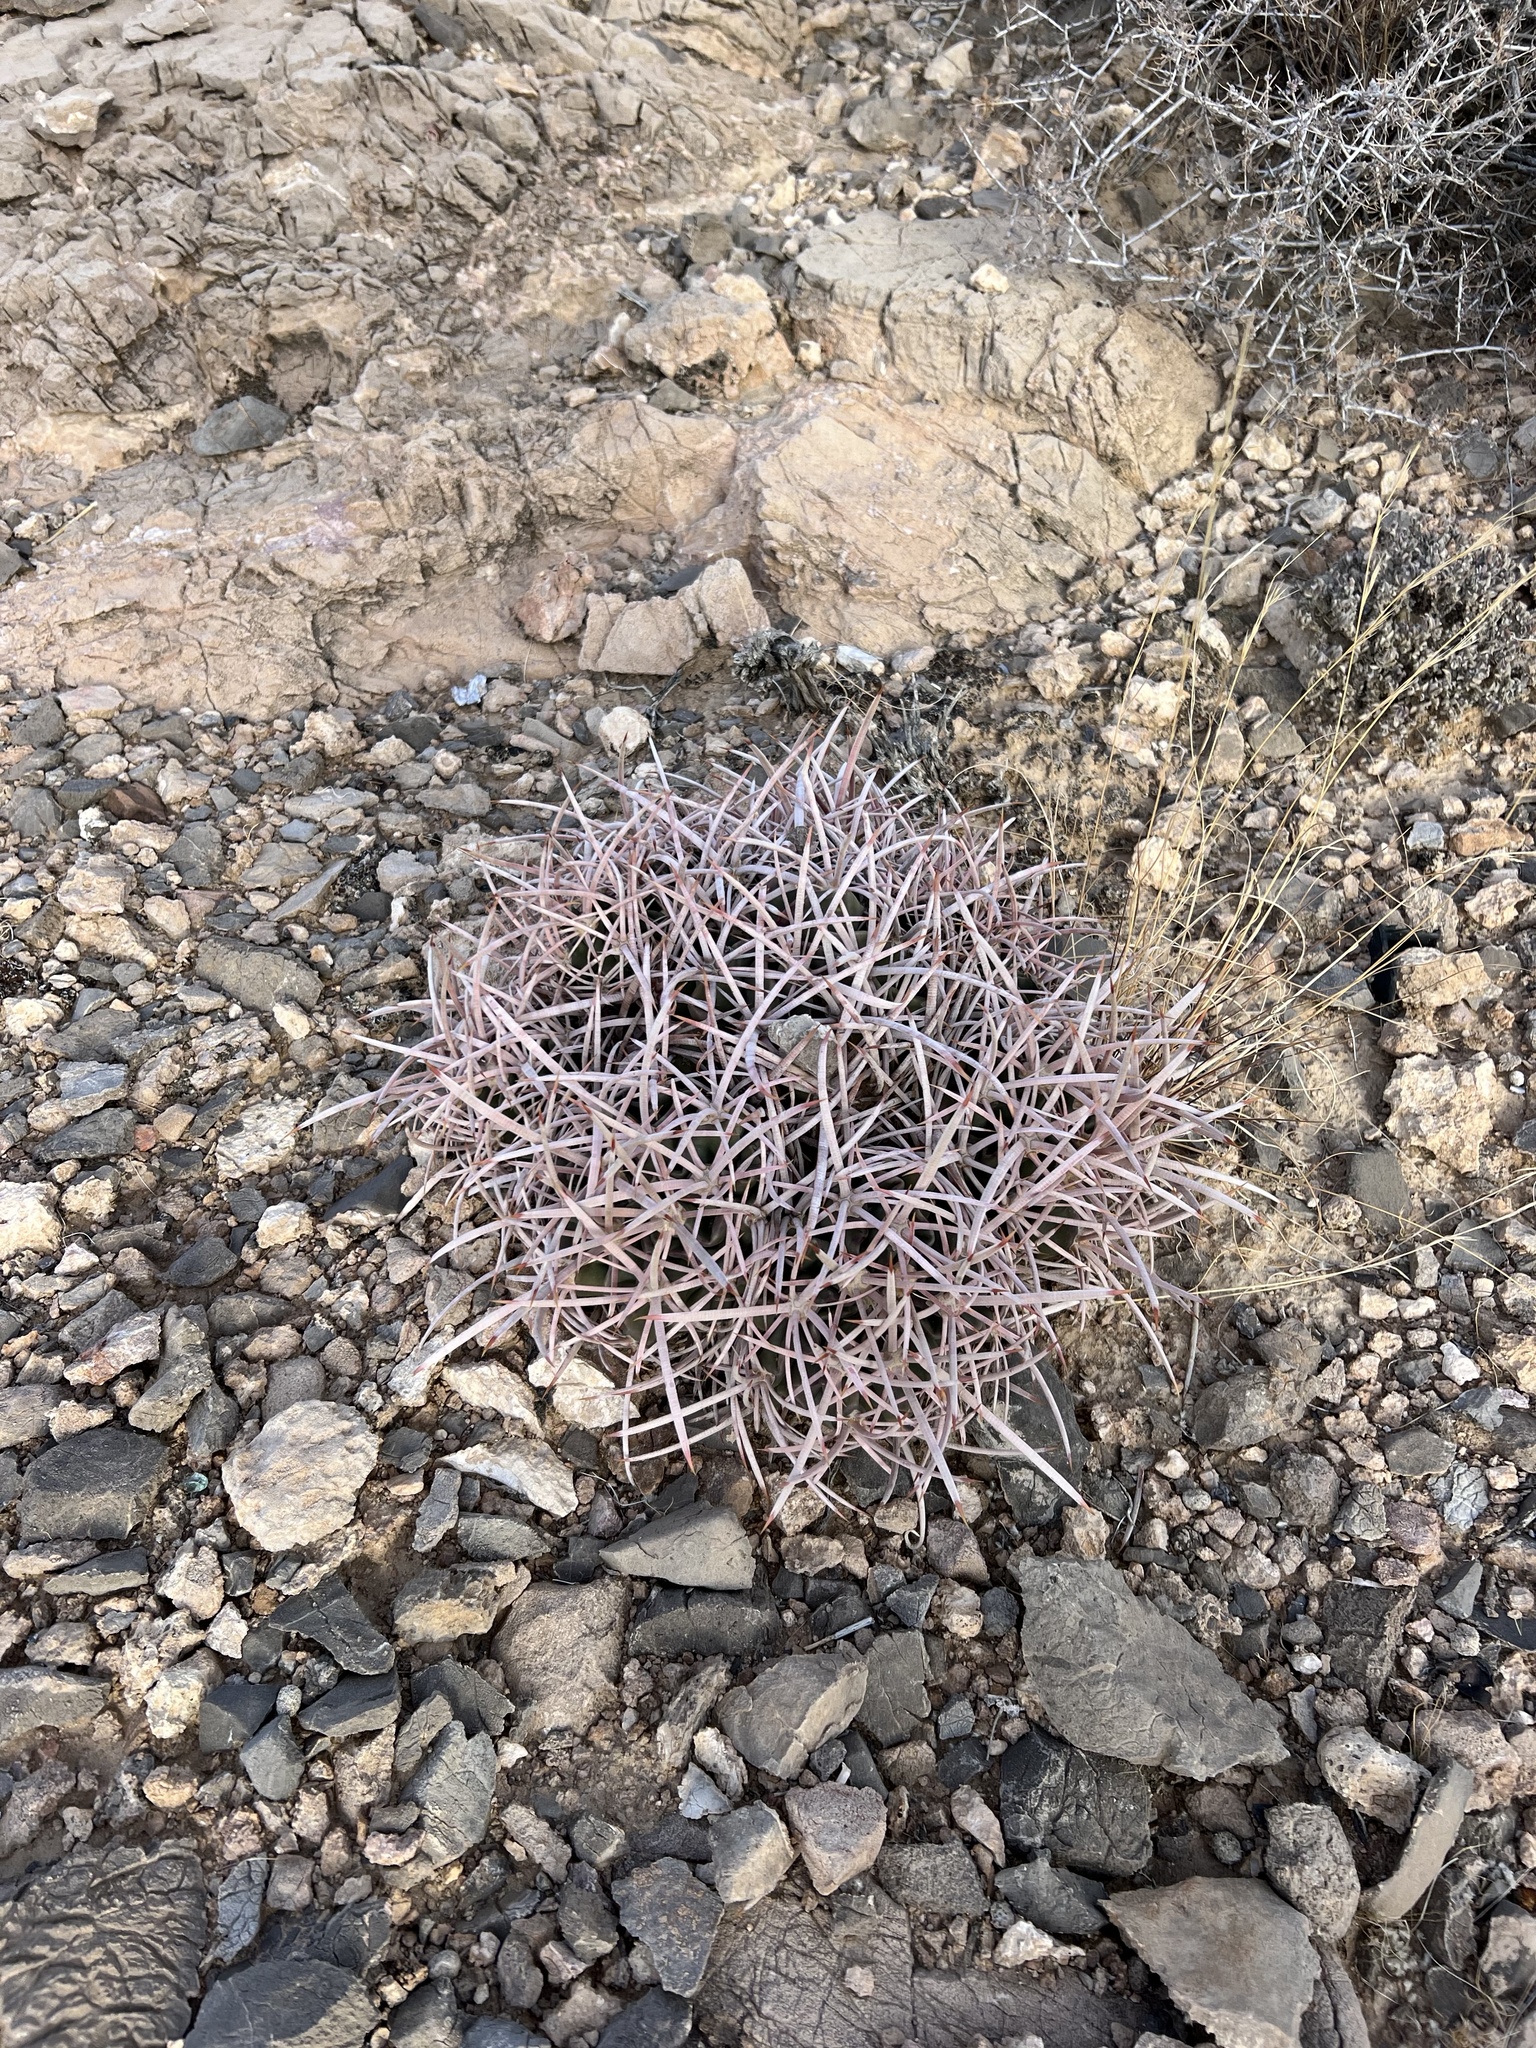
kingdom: Plantae
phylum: Tracheophyta
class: Magnoliopsida
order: Caryophyllales
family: Cactaceae
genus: Echinocactus
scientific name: Echinocactus polycephalus
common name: Cottontop cactus
